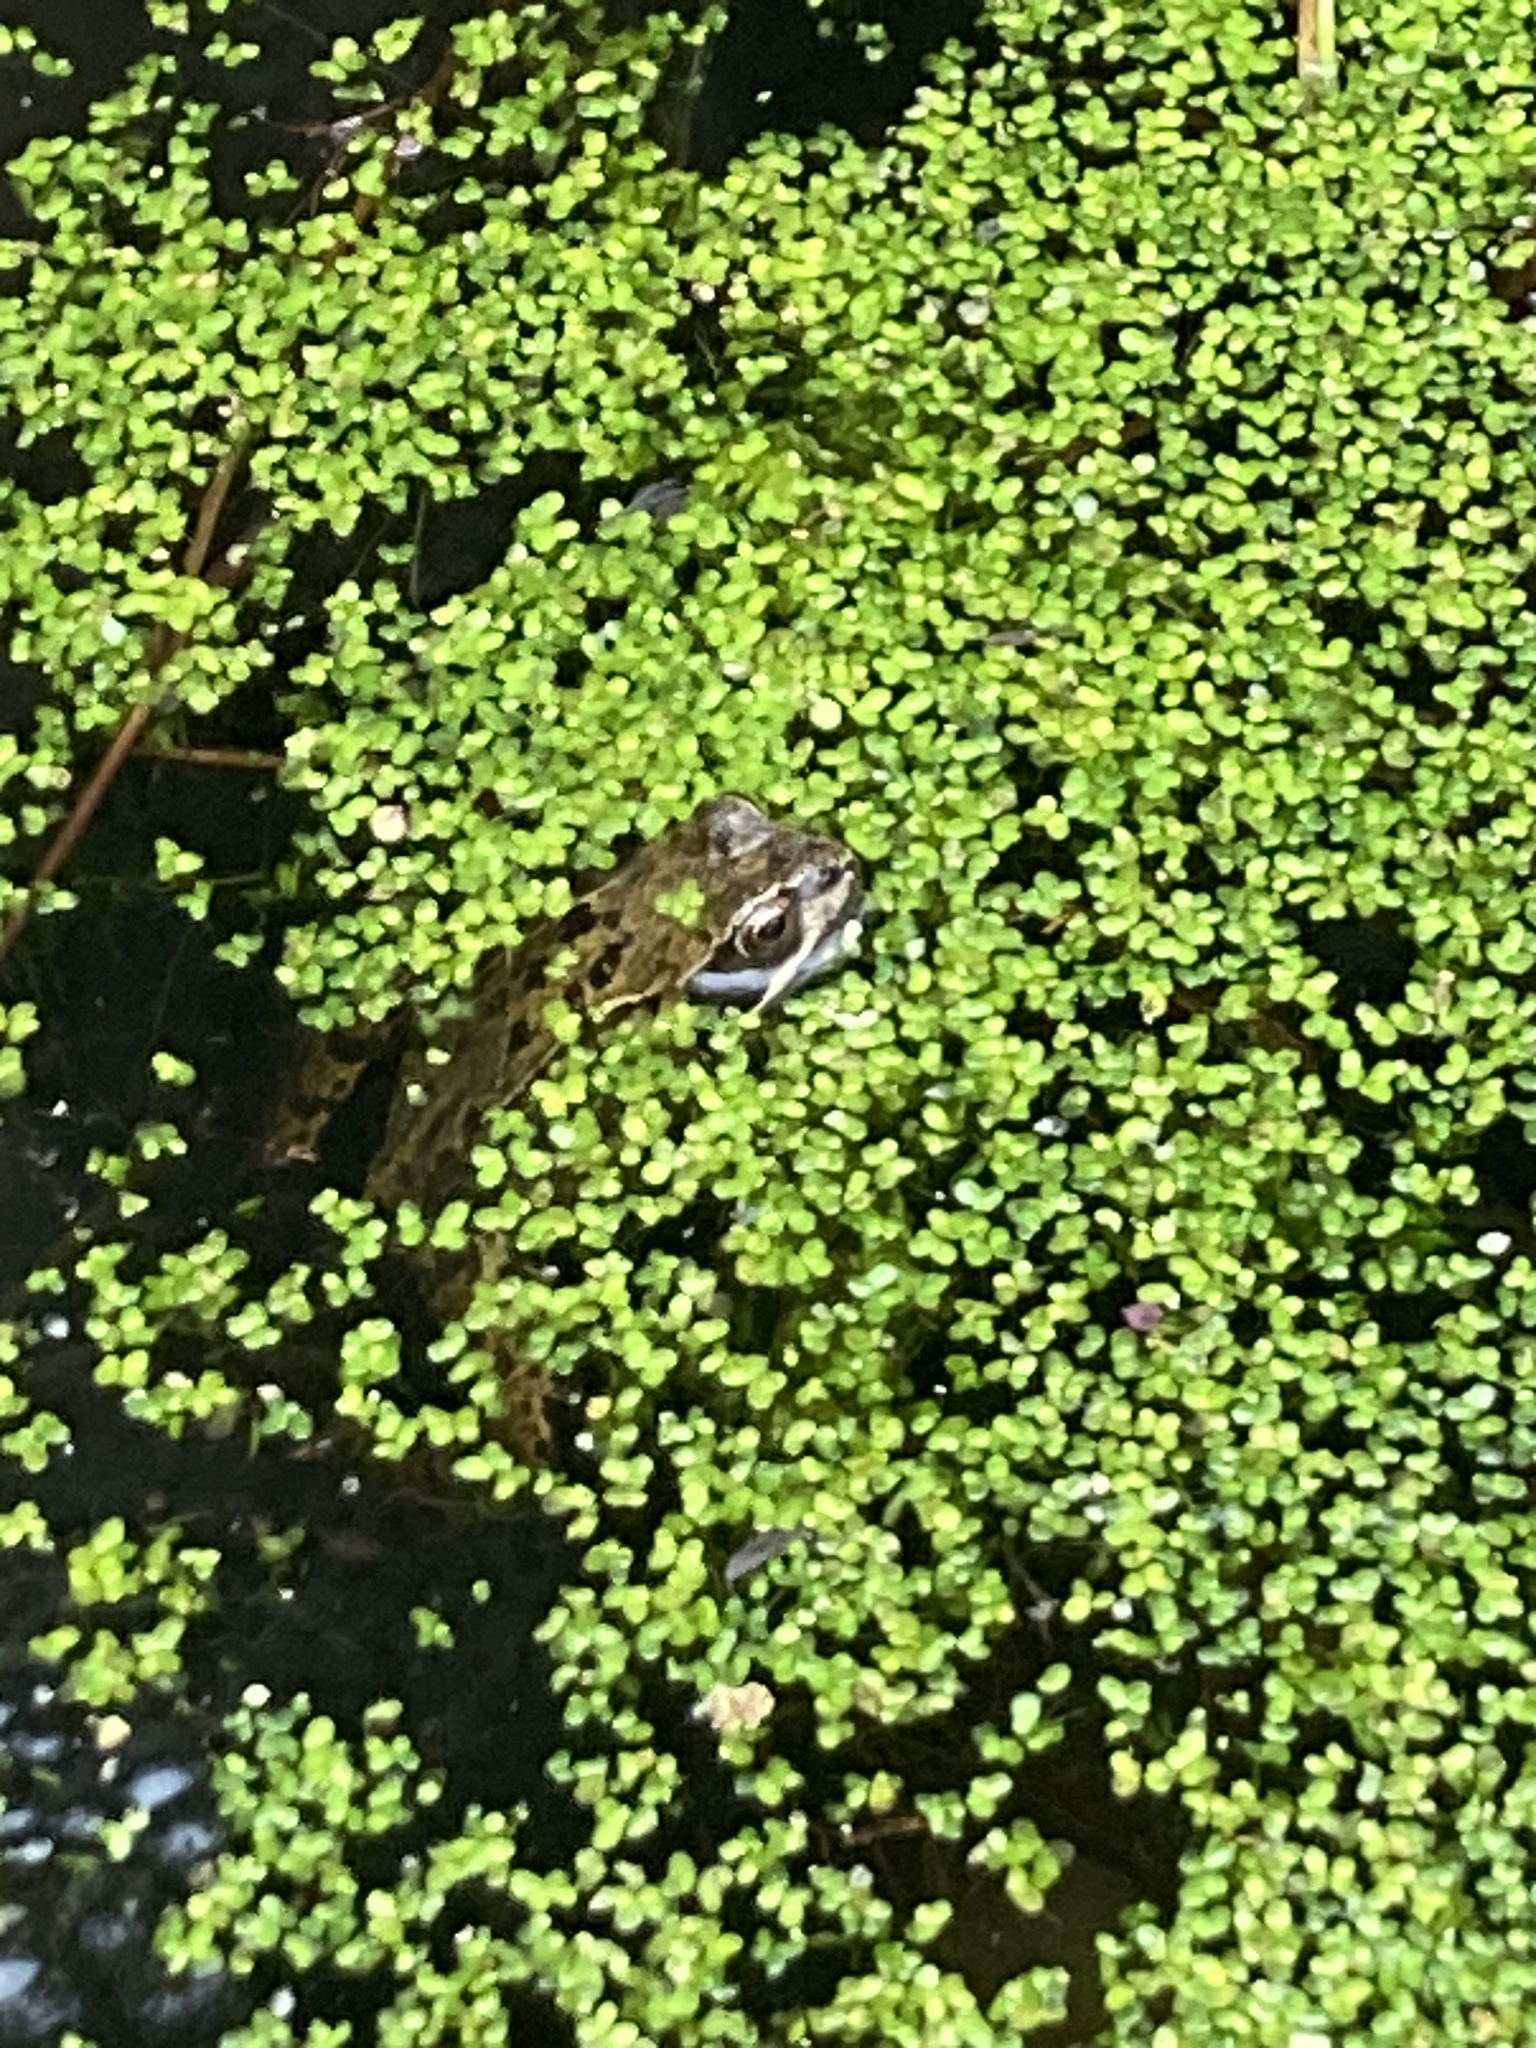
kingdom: Animalia
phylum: Chordata
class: Amphibia
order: Anura
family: Ranidae
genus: Rana
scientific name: Rana temporaria
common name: Common frog
